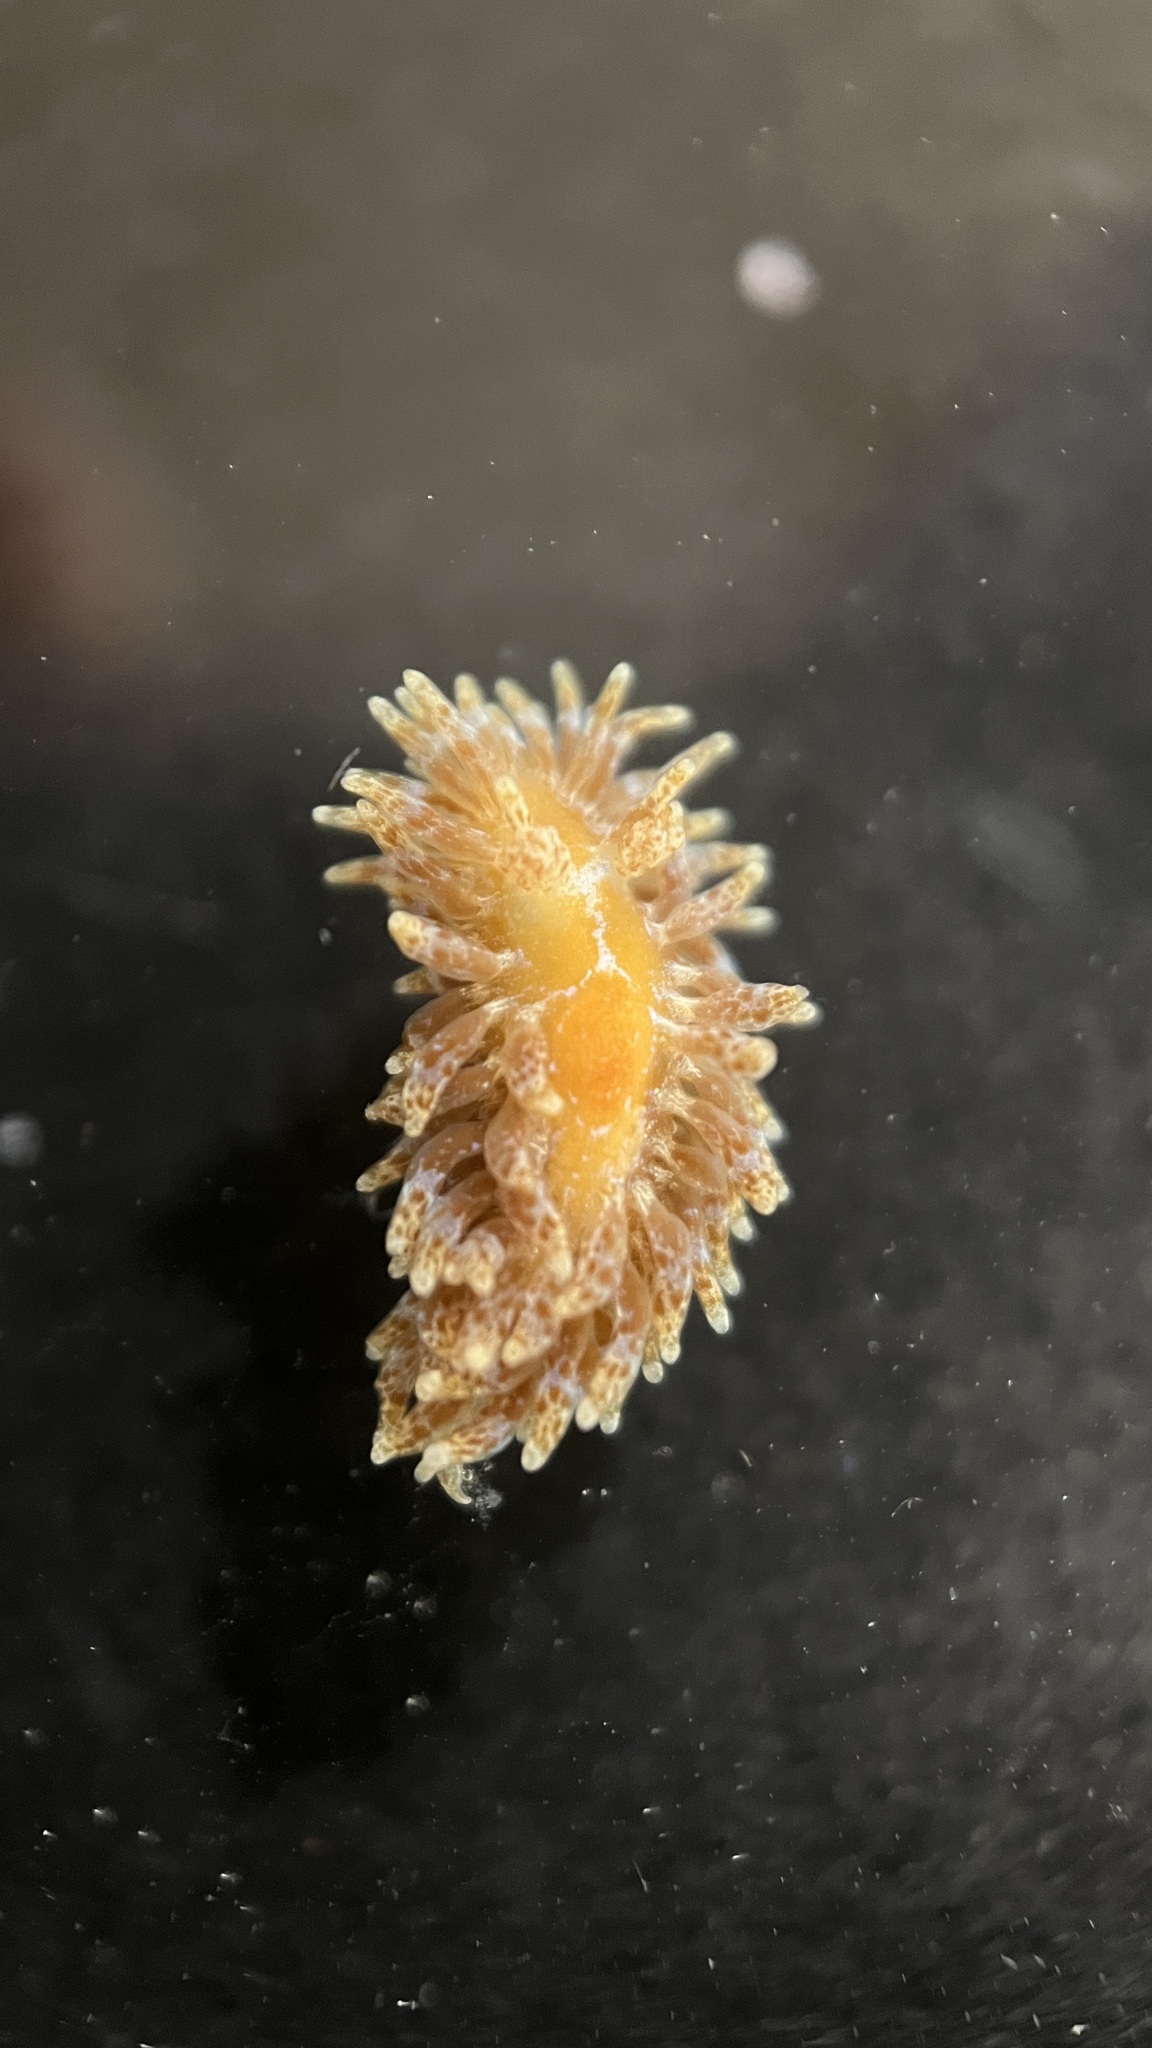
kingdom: Animalia
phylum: Mollusca
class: Gastropoda
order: Nudibranchia
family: Proctonotidae
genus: Caldukia
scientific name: Caldukia affinis
